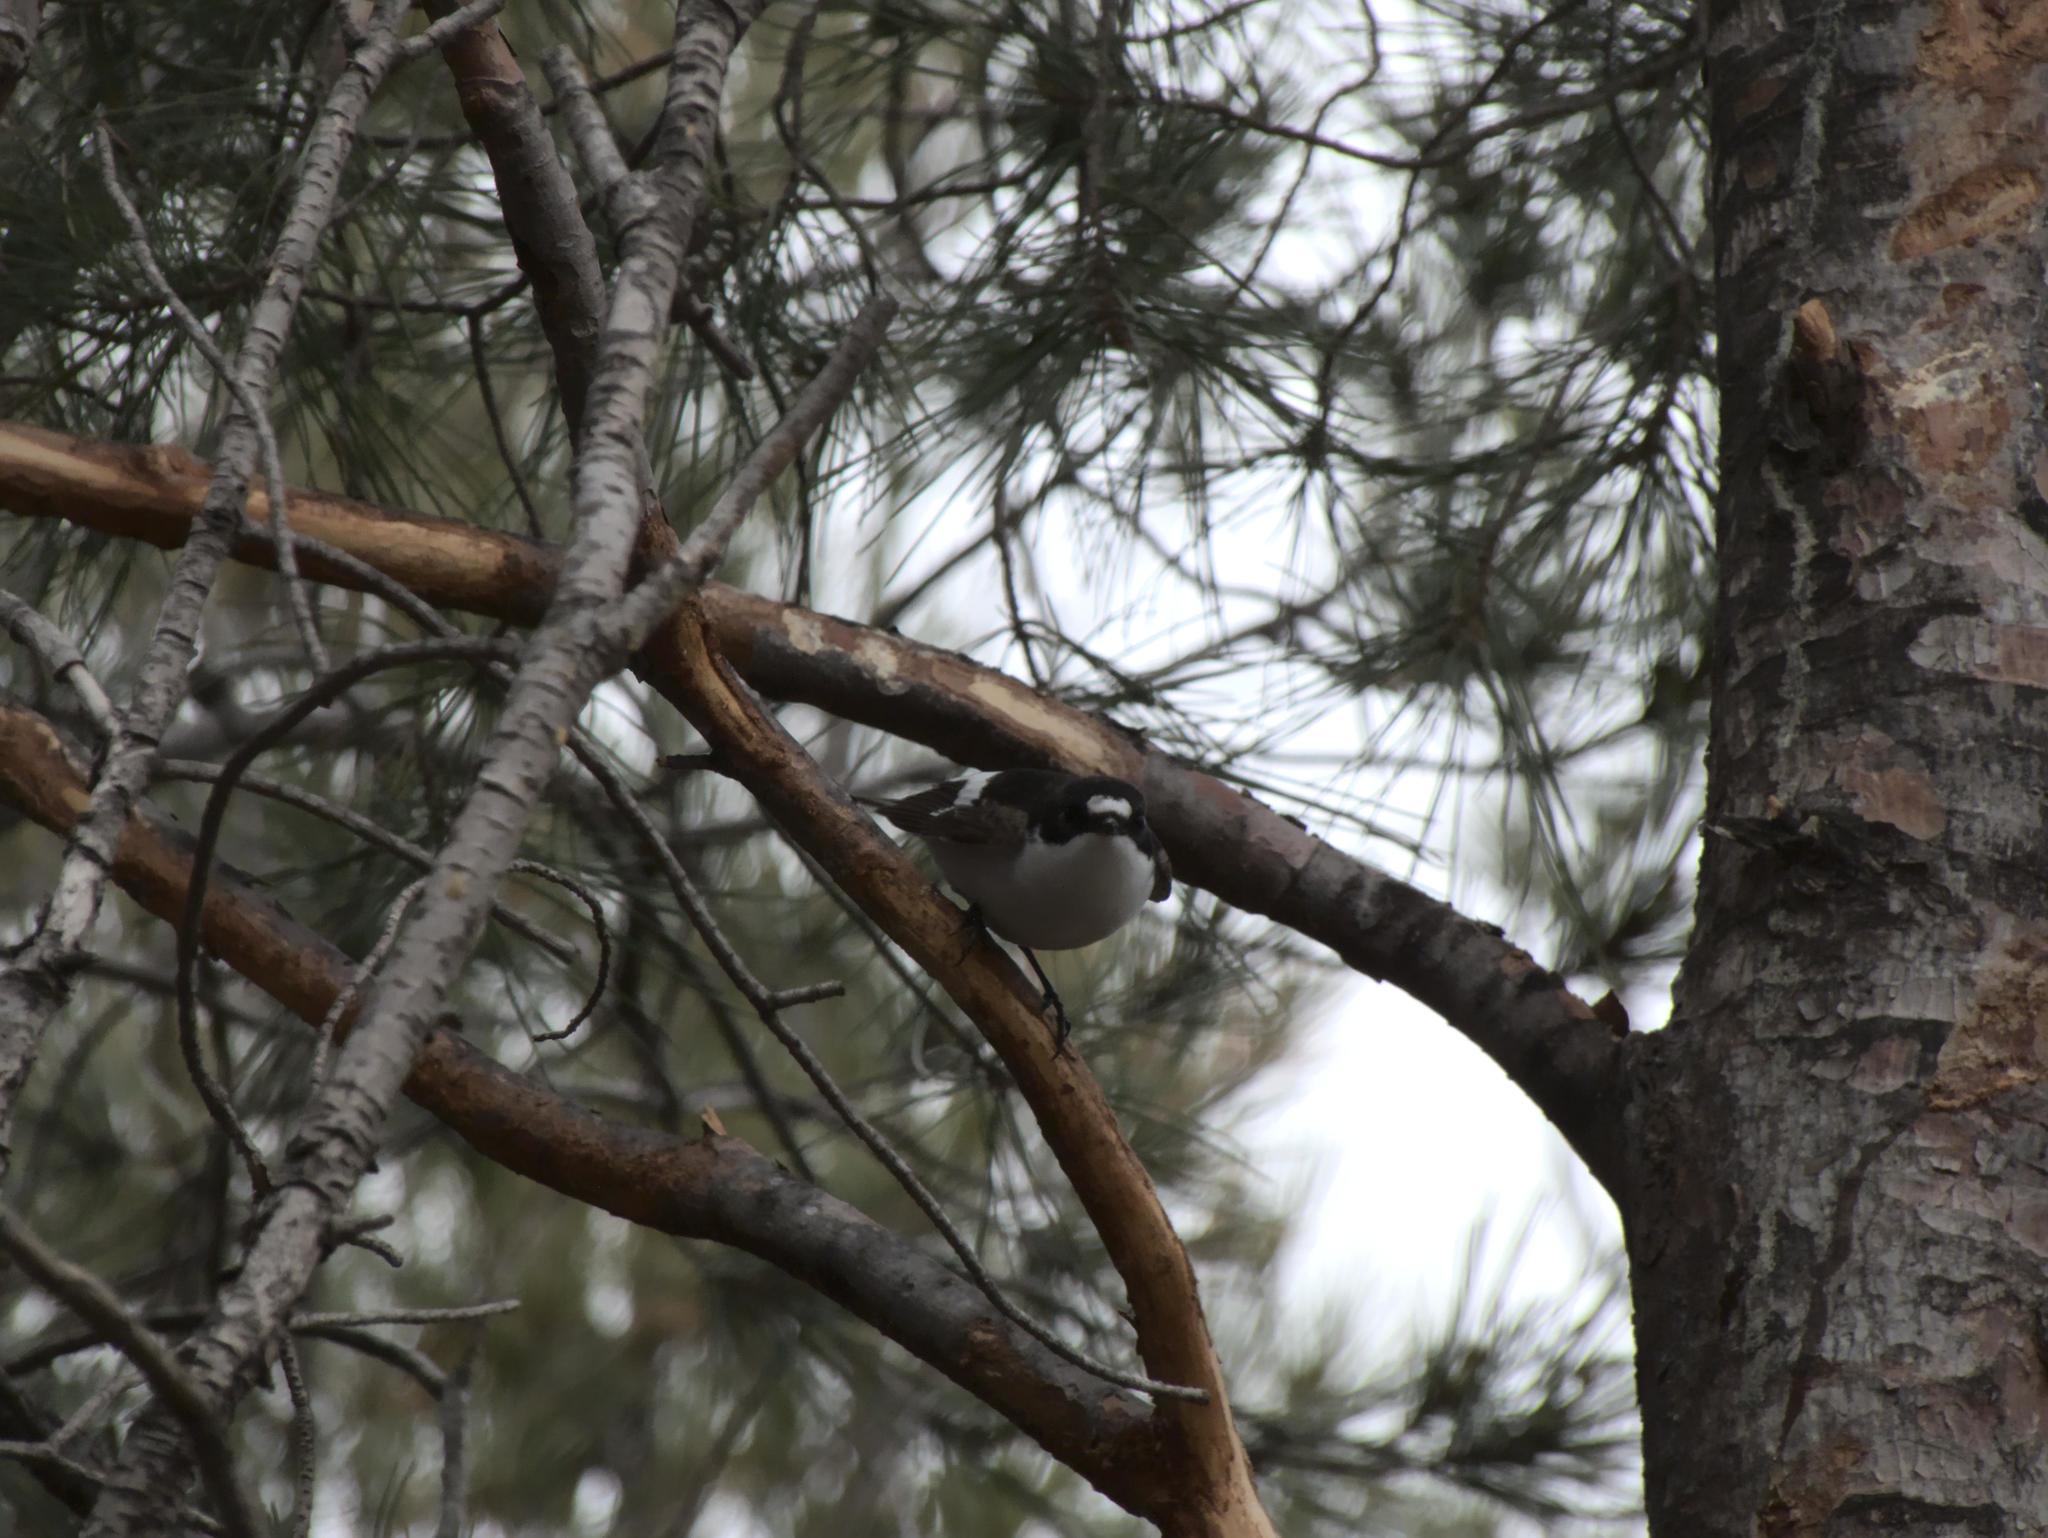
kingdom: Animalia
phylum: Chordata
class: Aves
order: Passeriformes
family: Muscicapidae
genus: Ficedula
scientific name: Ficedula hypoleuca
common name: European pied flycatcher
